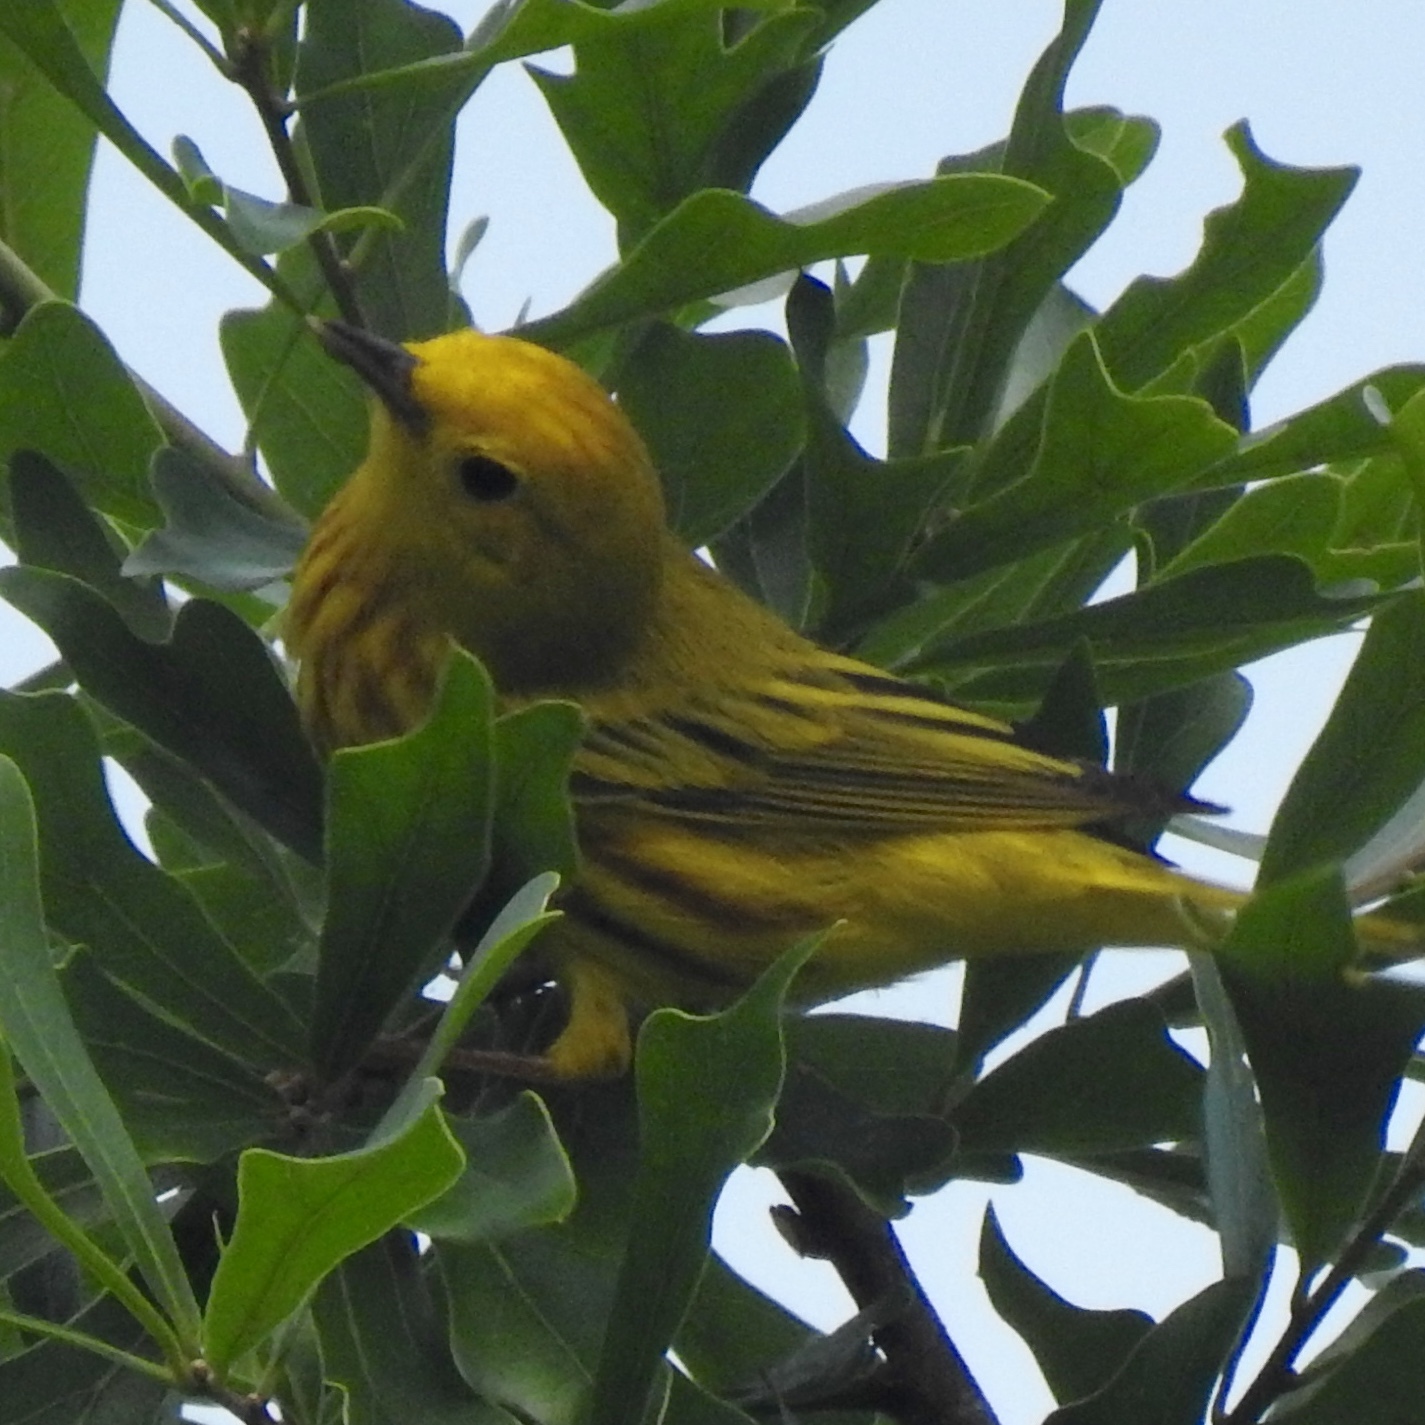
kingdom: Animalia
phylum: Chordata
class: Aves
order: Passeriformes
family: Parulidae
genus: Setophaga
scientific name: Setophaga petechia
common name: Yellow warbler
